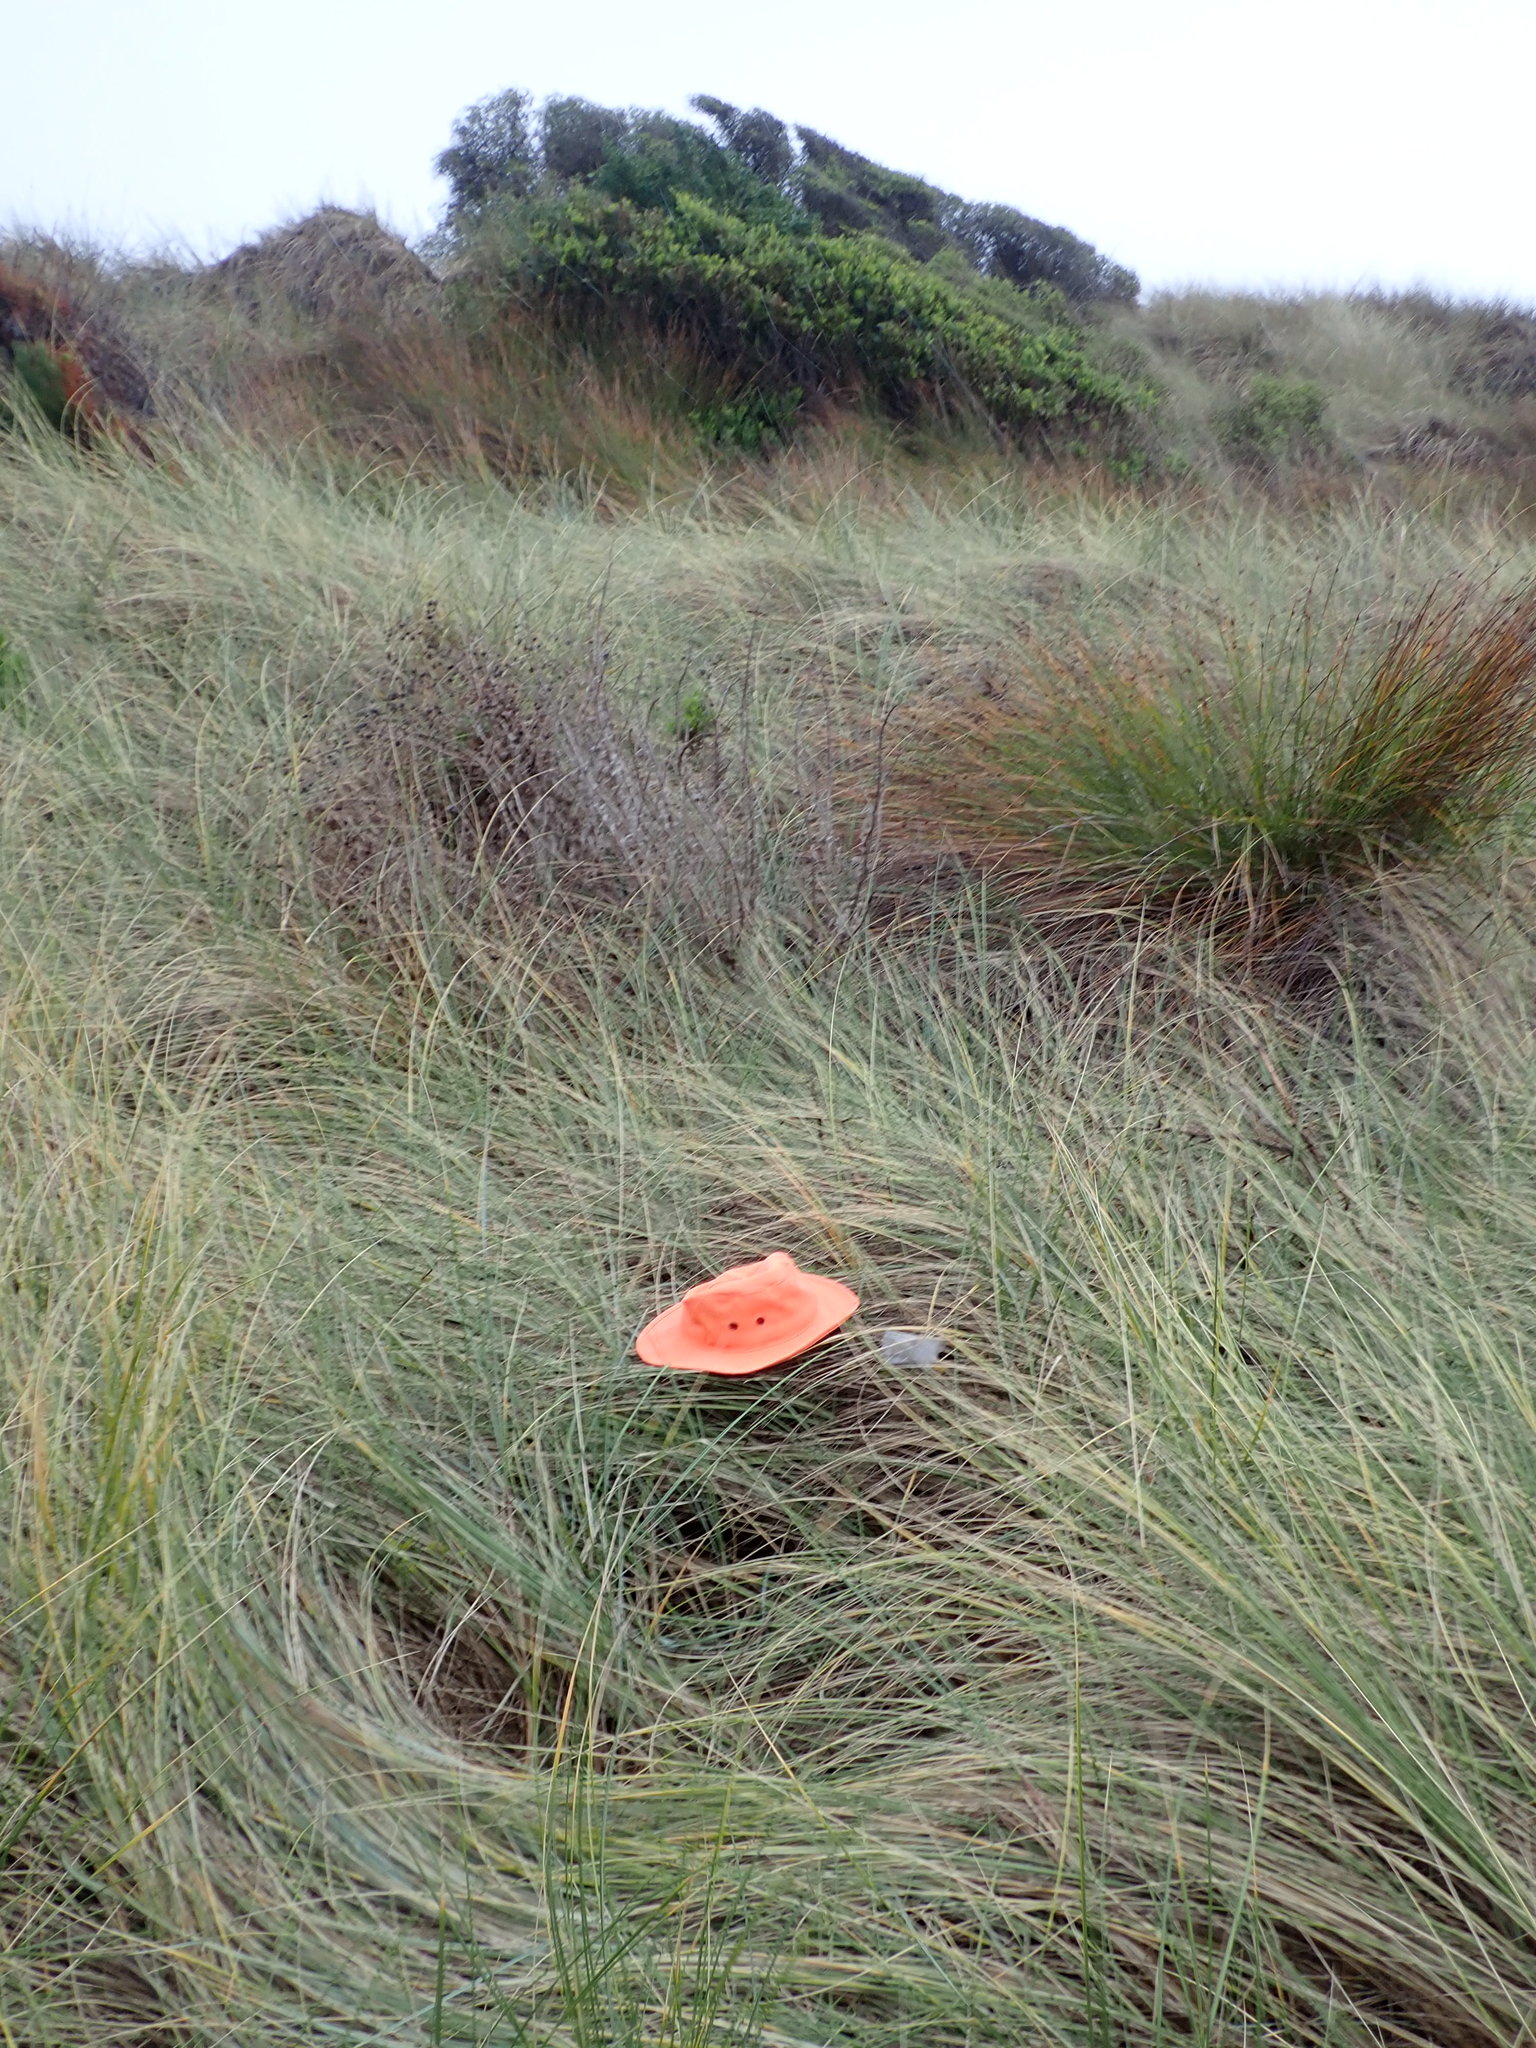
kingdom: Animalia
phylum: Arthropoda
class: Arachnida
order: Araneae
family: Pisauridae
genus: Dolomedes
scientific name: Dolomedes minor
